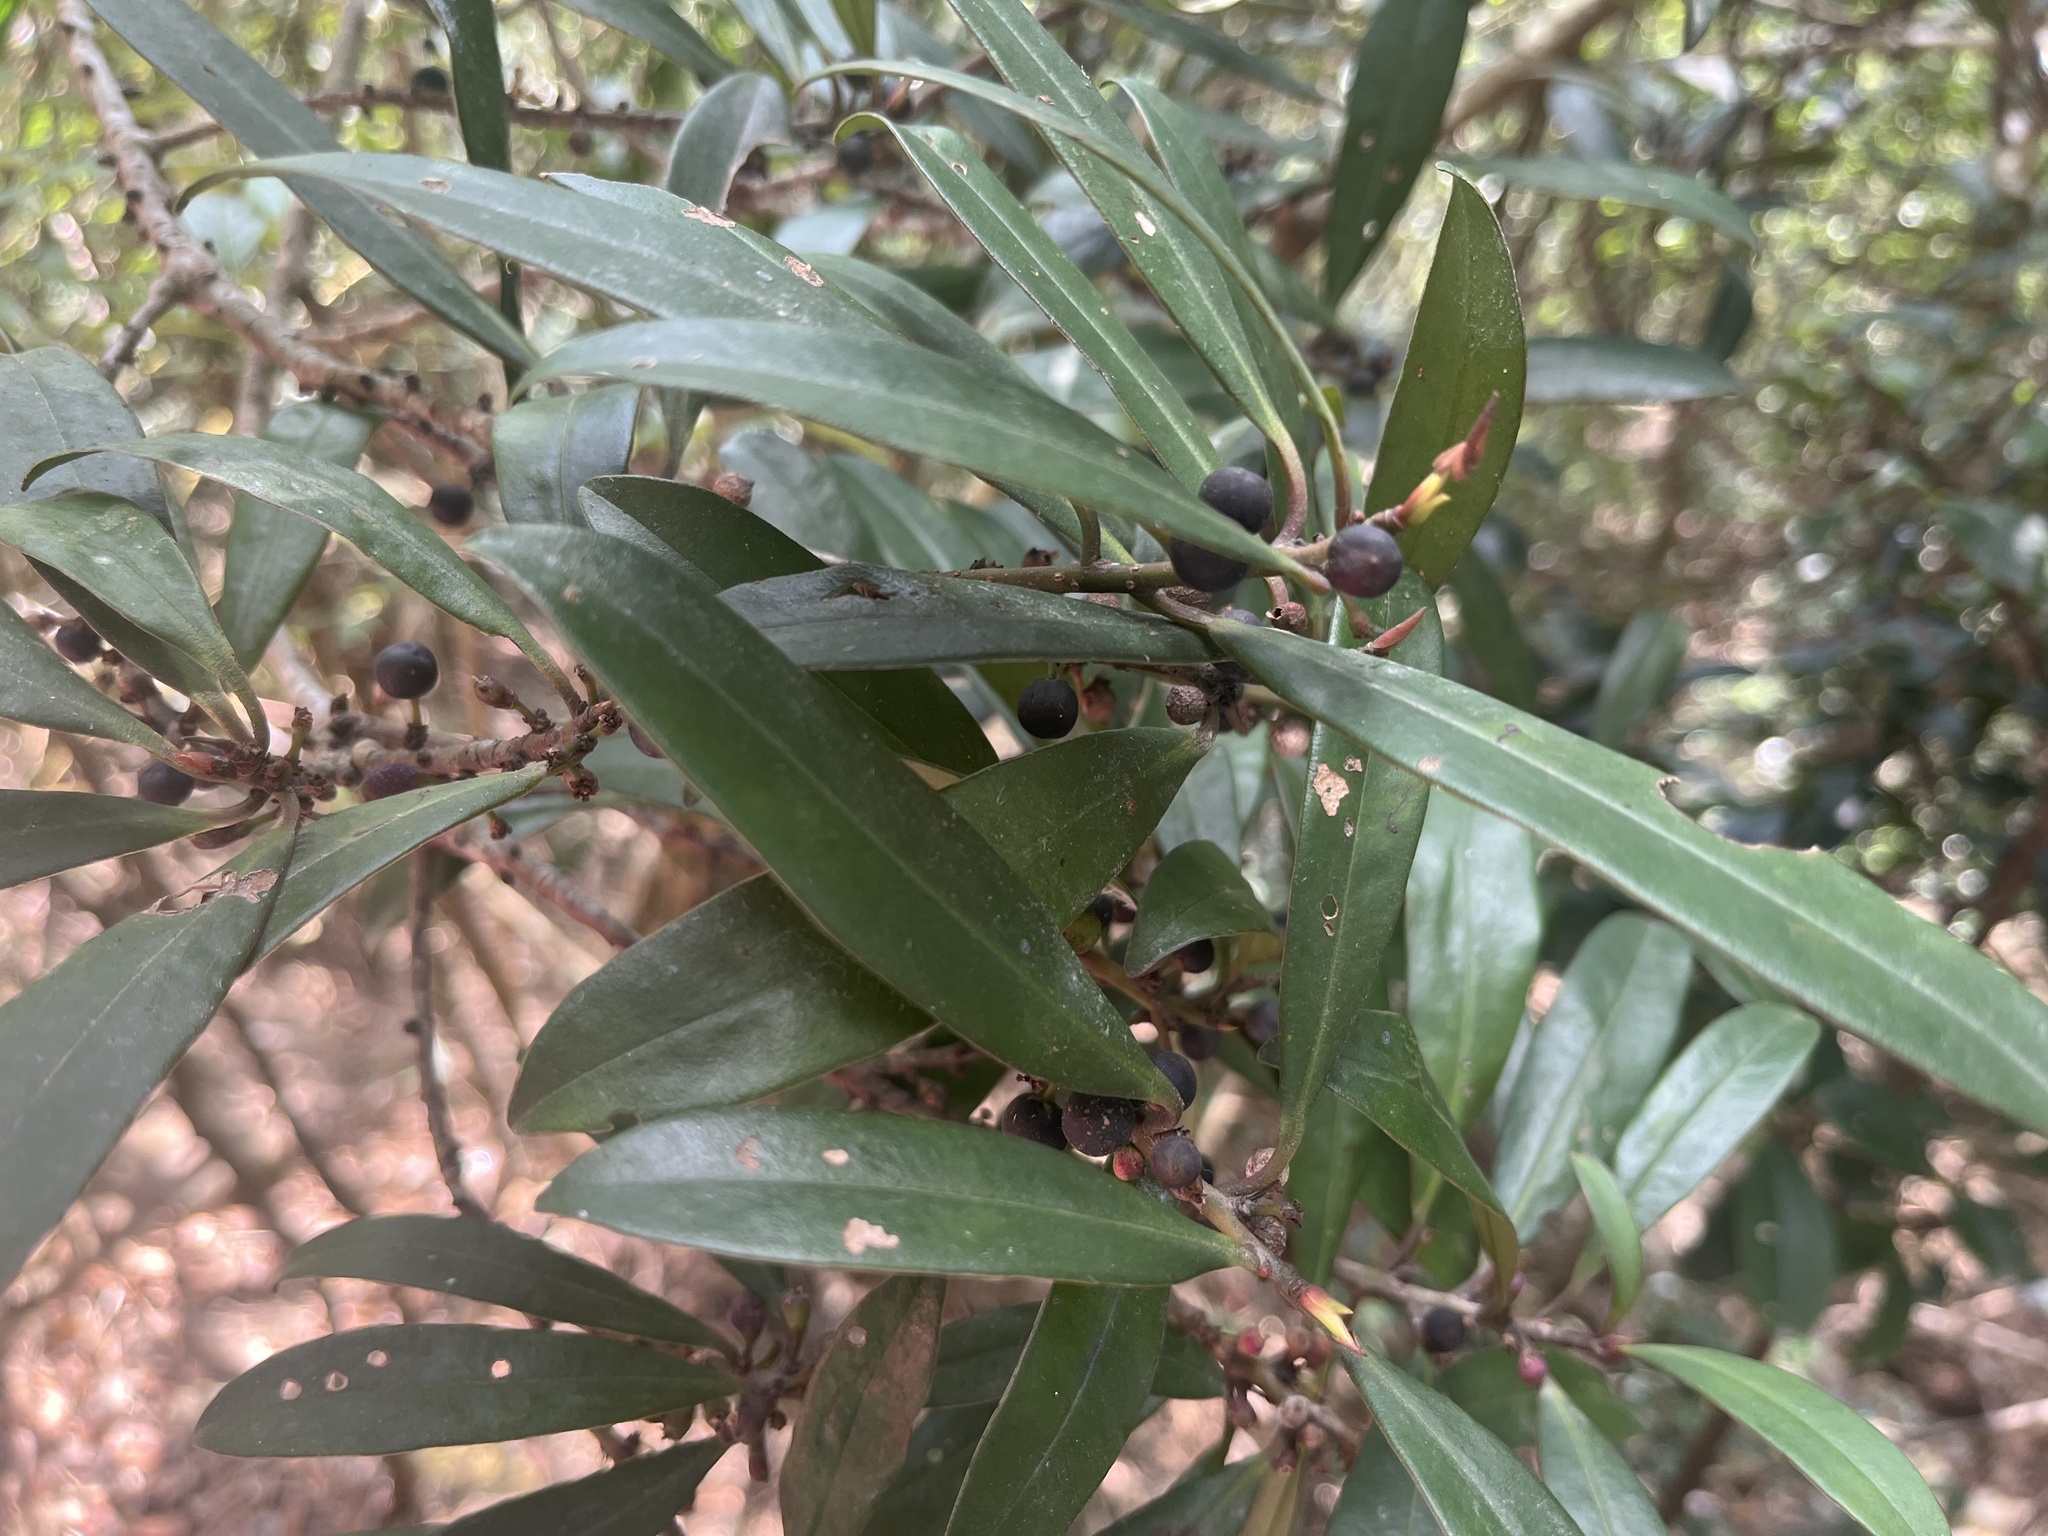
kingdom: Plantae
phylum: Tracheophyta
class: Magnoliopsida
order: Ericales
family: Primulaceae
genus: Myrsine
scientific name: Myrsine seguinii
